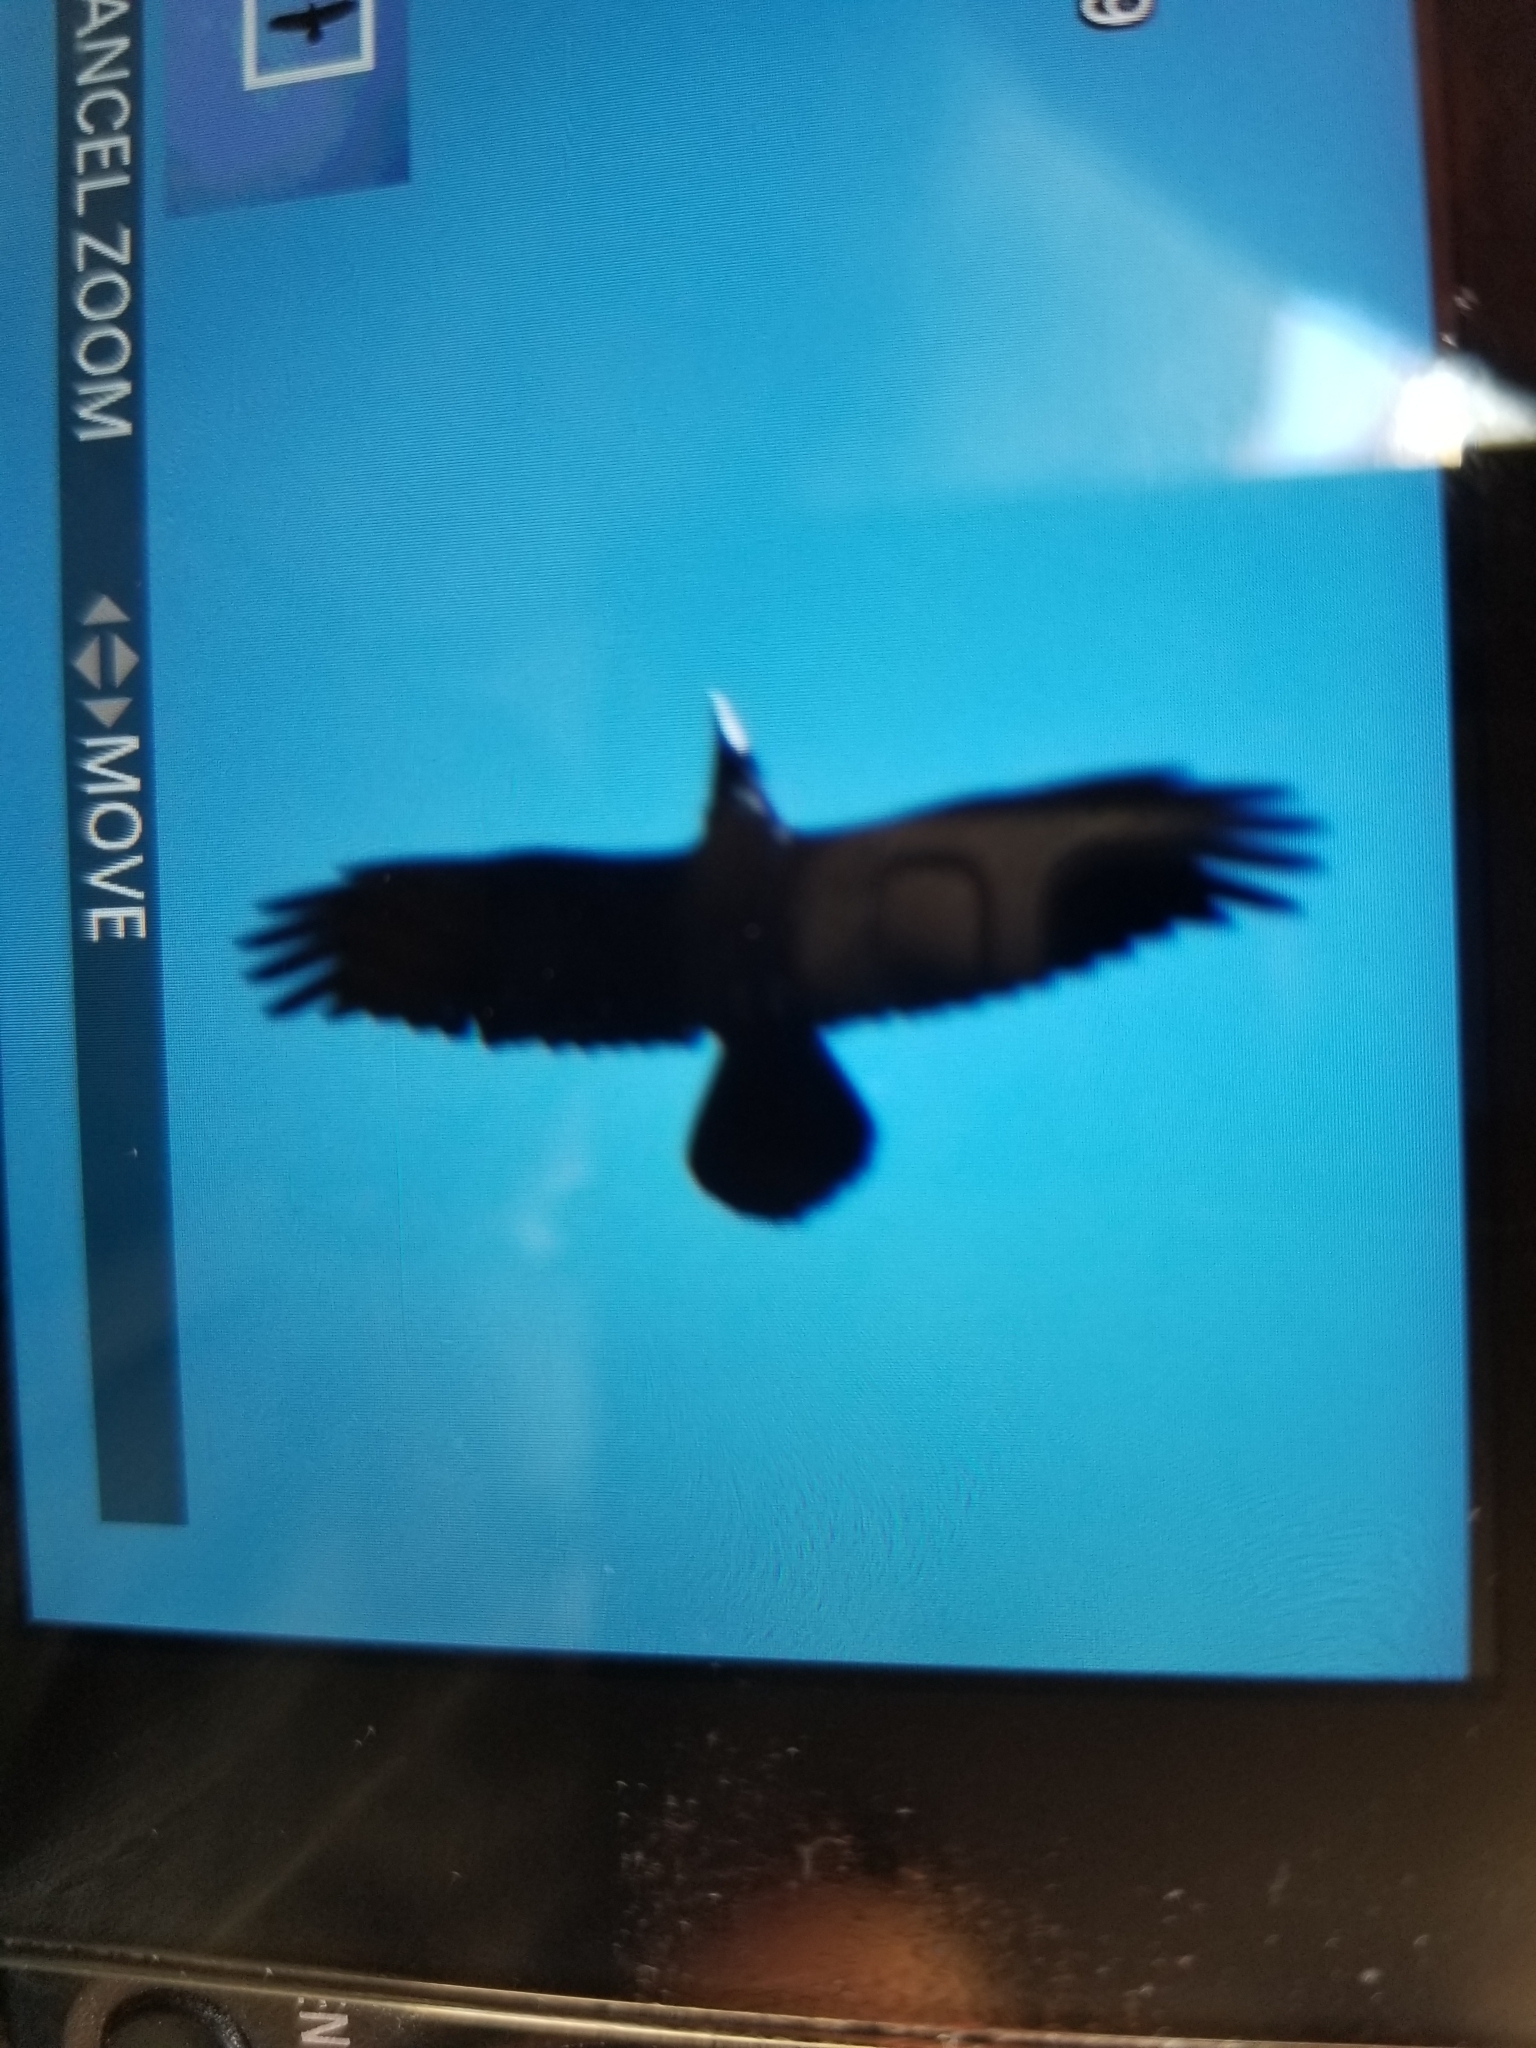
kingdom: Animalia
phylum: Chordata
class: Aves
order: Passeriformes
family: Corvidae
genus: Corvus
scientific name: Corvus corax
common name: Common raven
